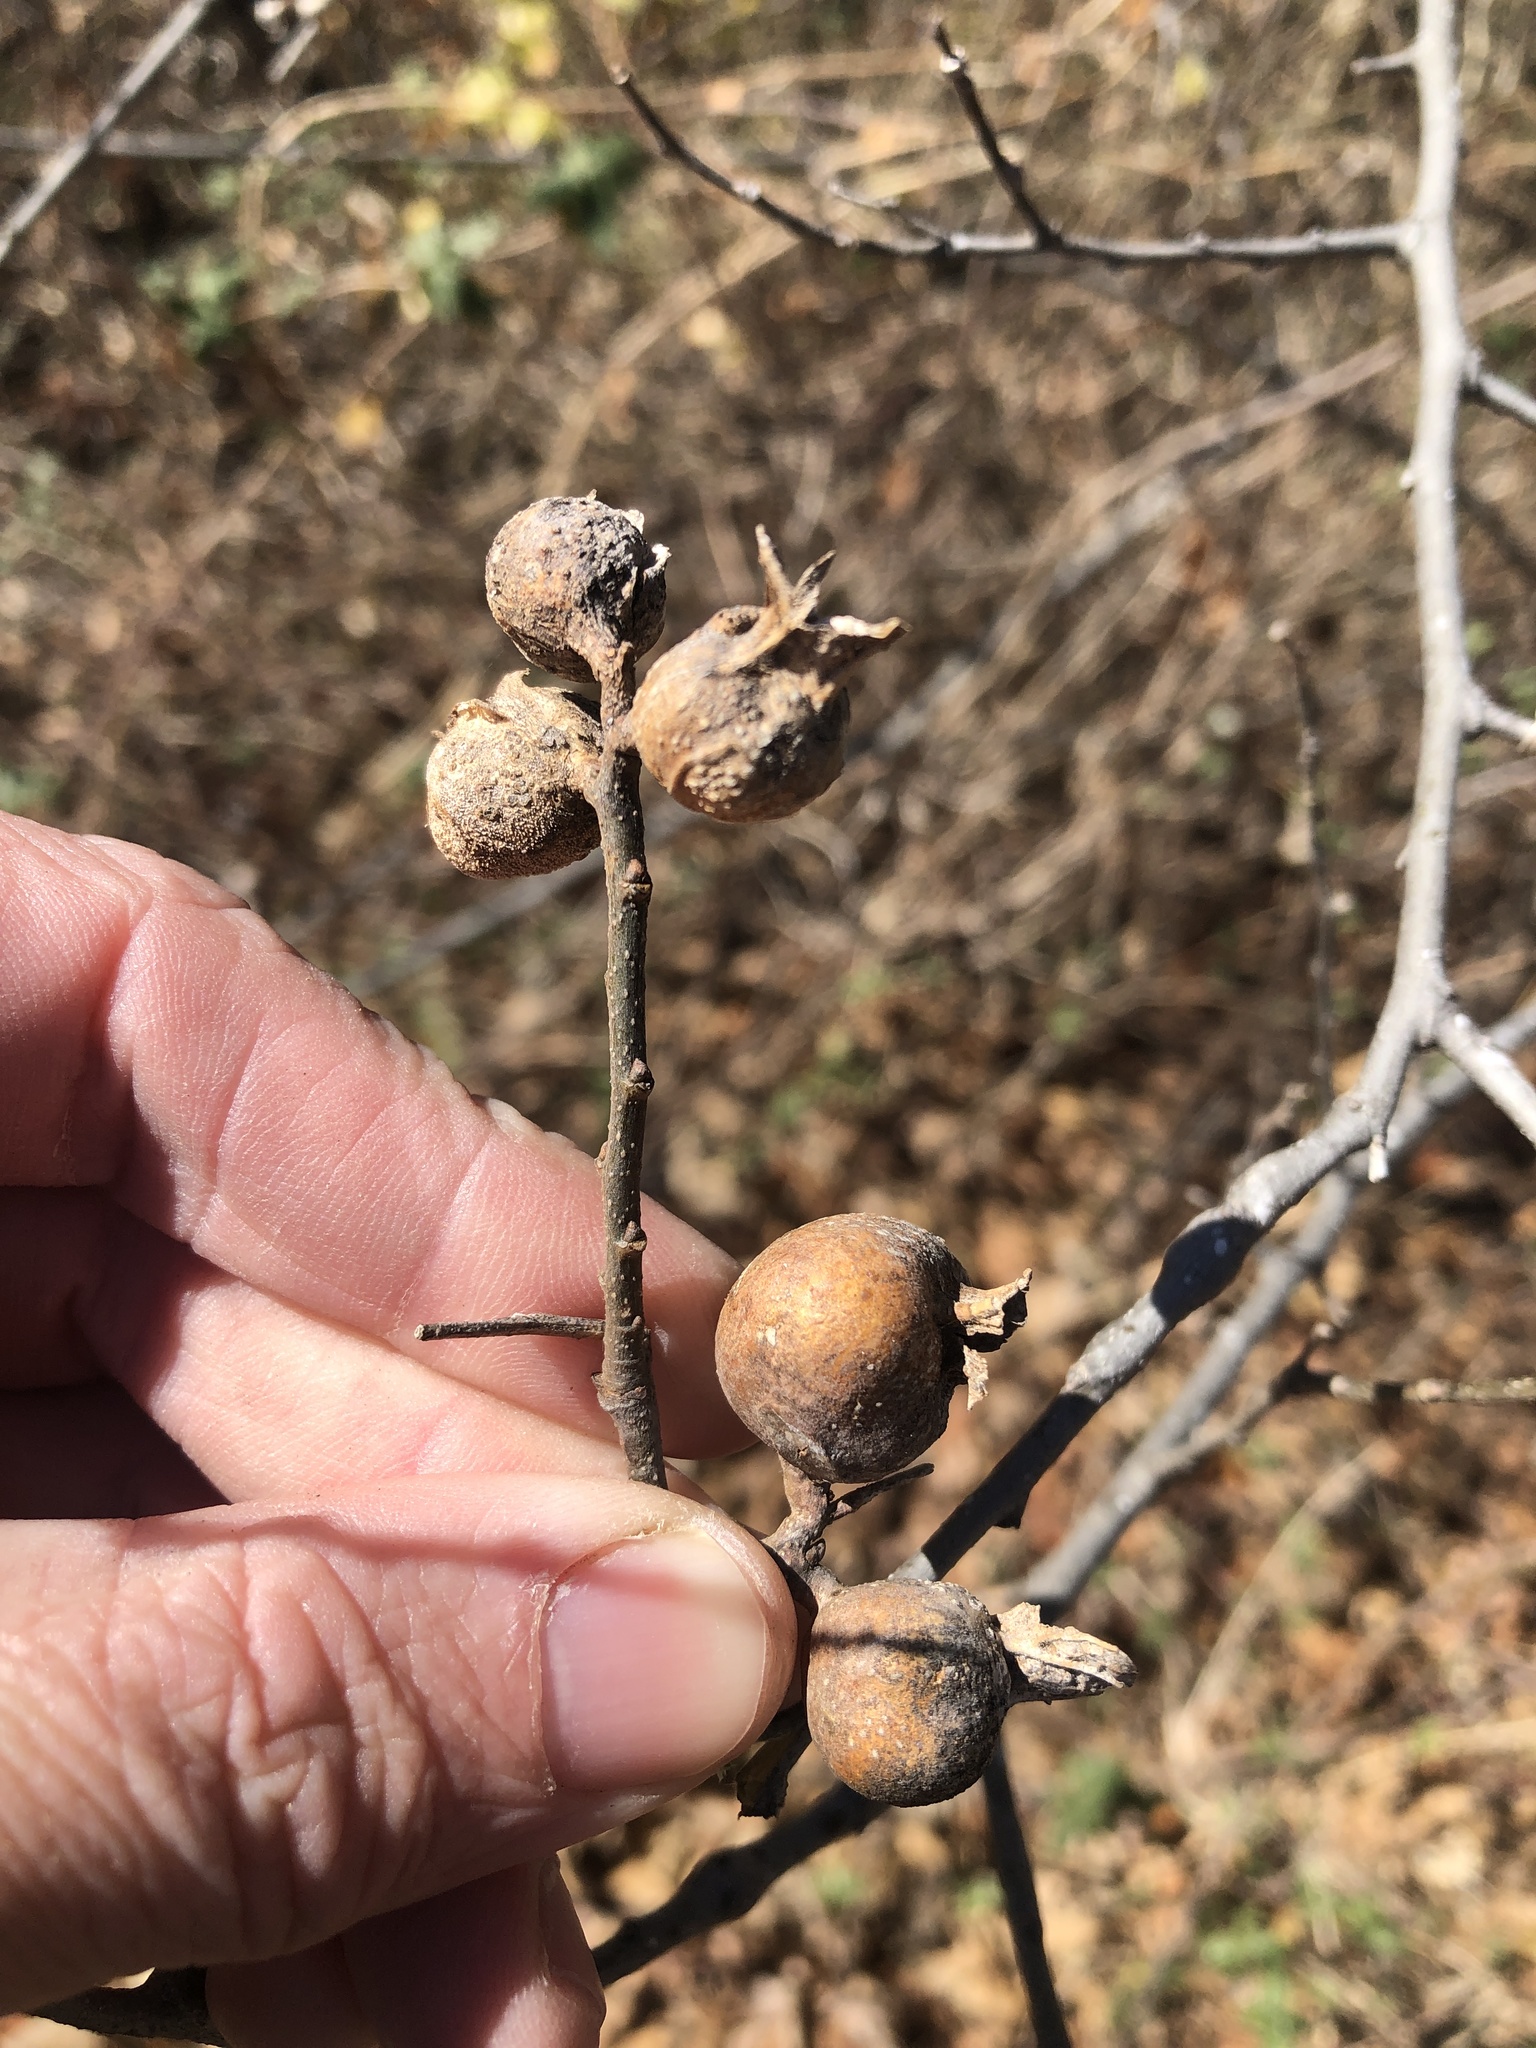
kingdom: Animalia
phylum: Arthropoda
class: Insecta
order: Hemiptera
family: Aphalaridae
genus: Pachypsylla
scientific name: Pachypsylla venusta
